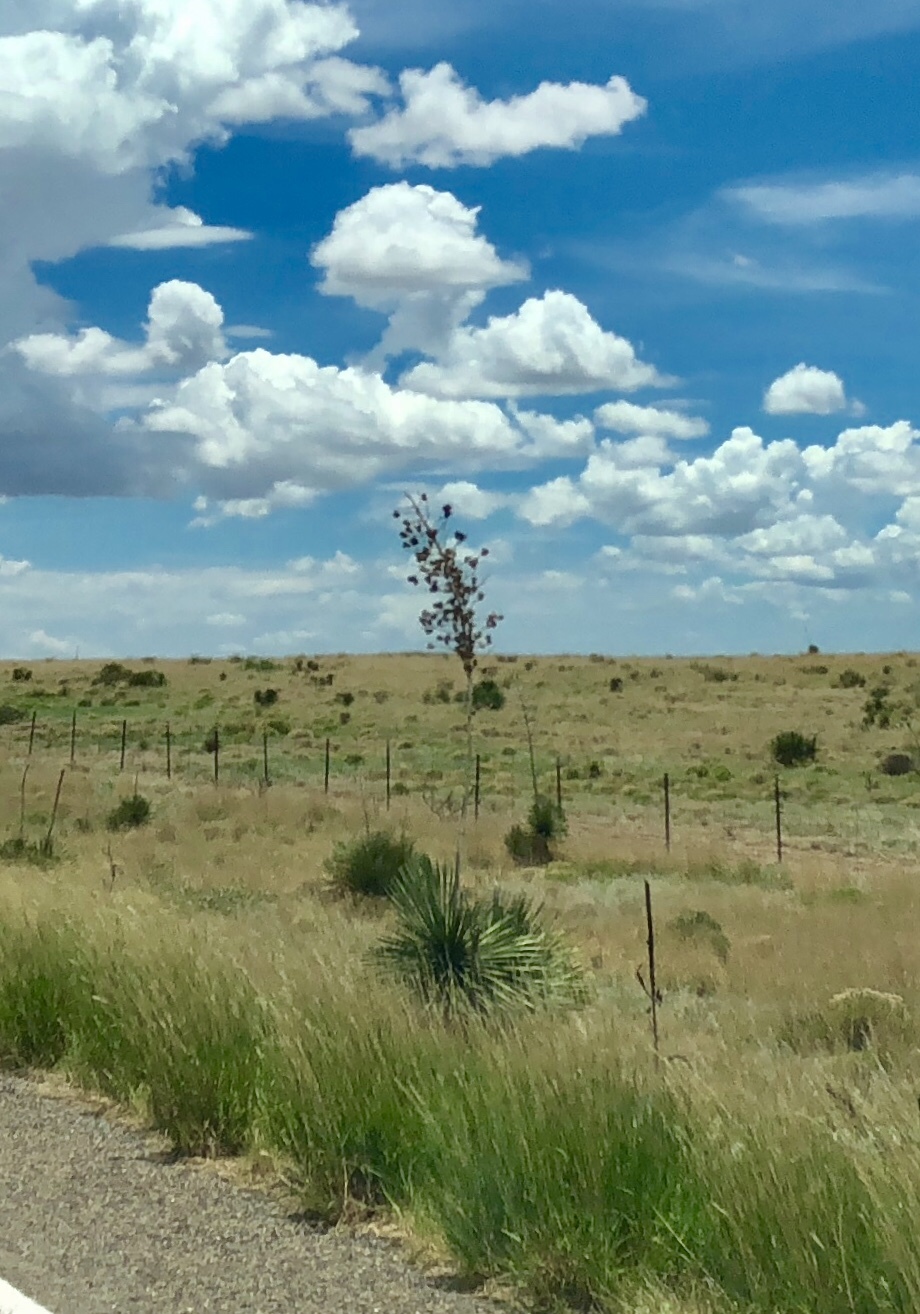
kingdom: Plantae
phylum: Tracheophyta
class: Liliopsida
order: Asparagales
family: Asparagaceae
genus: Yucca
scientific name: Yucca elata
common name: Palmella
